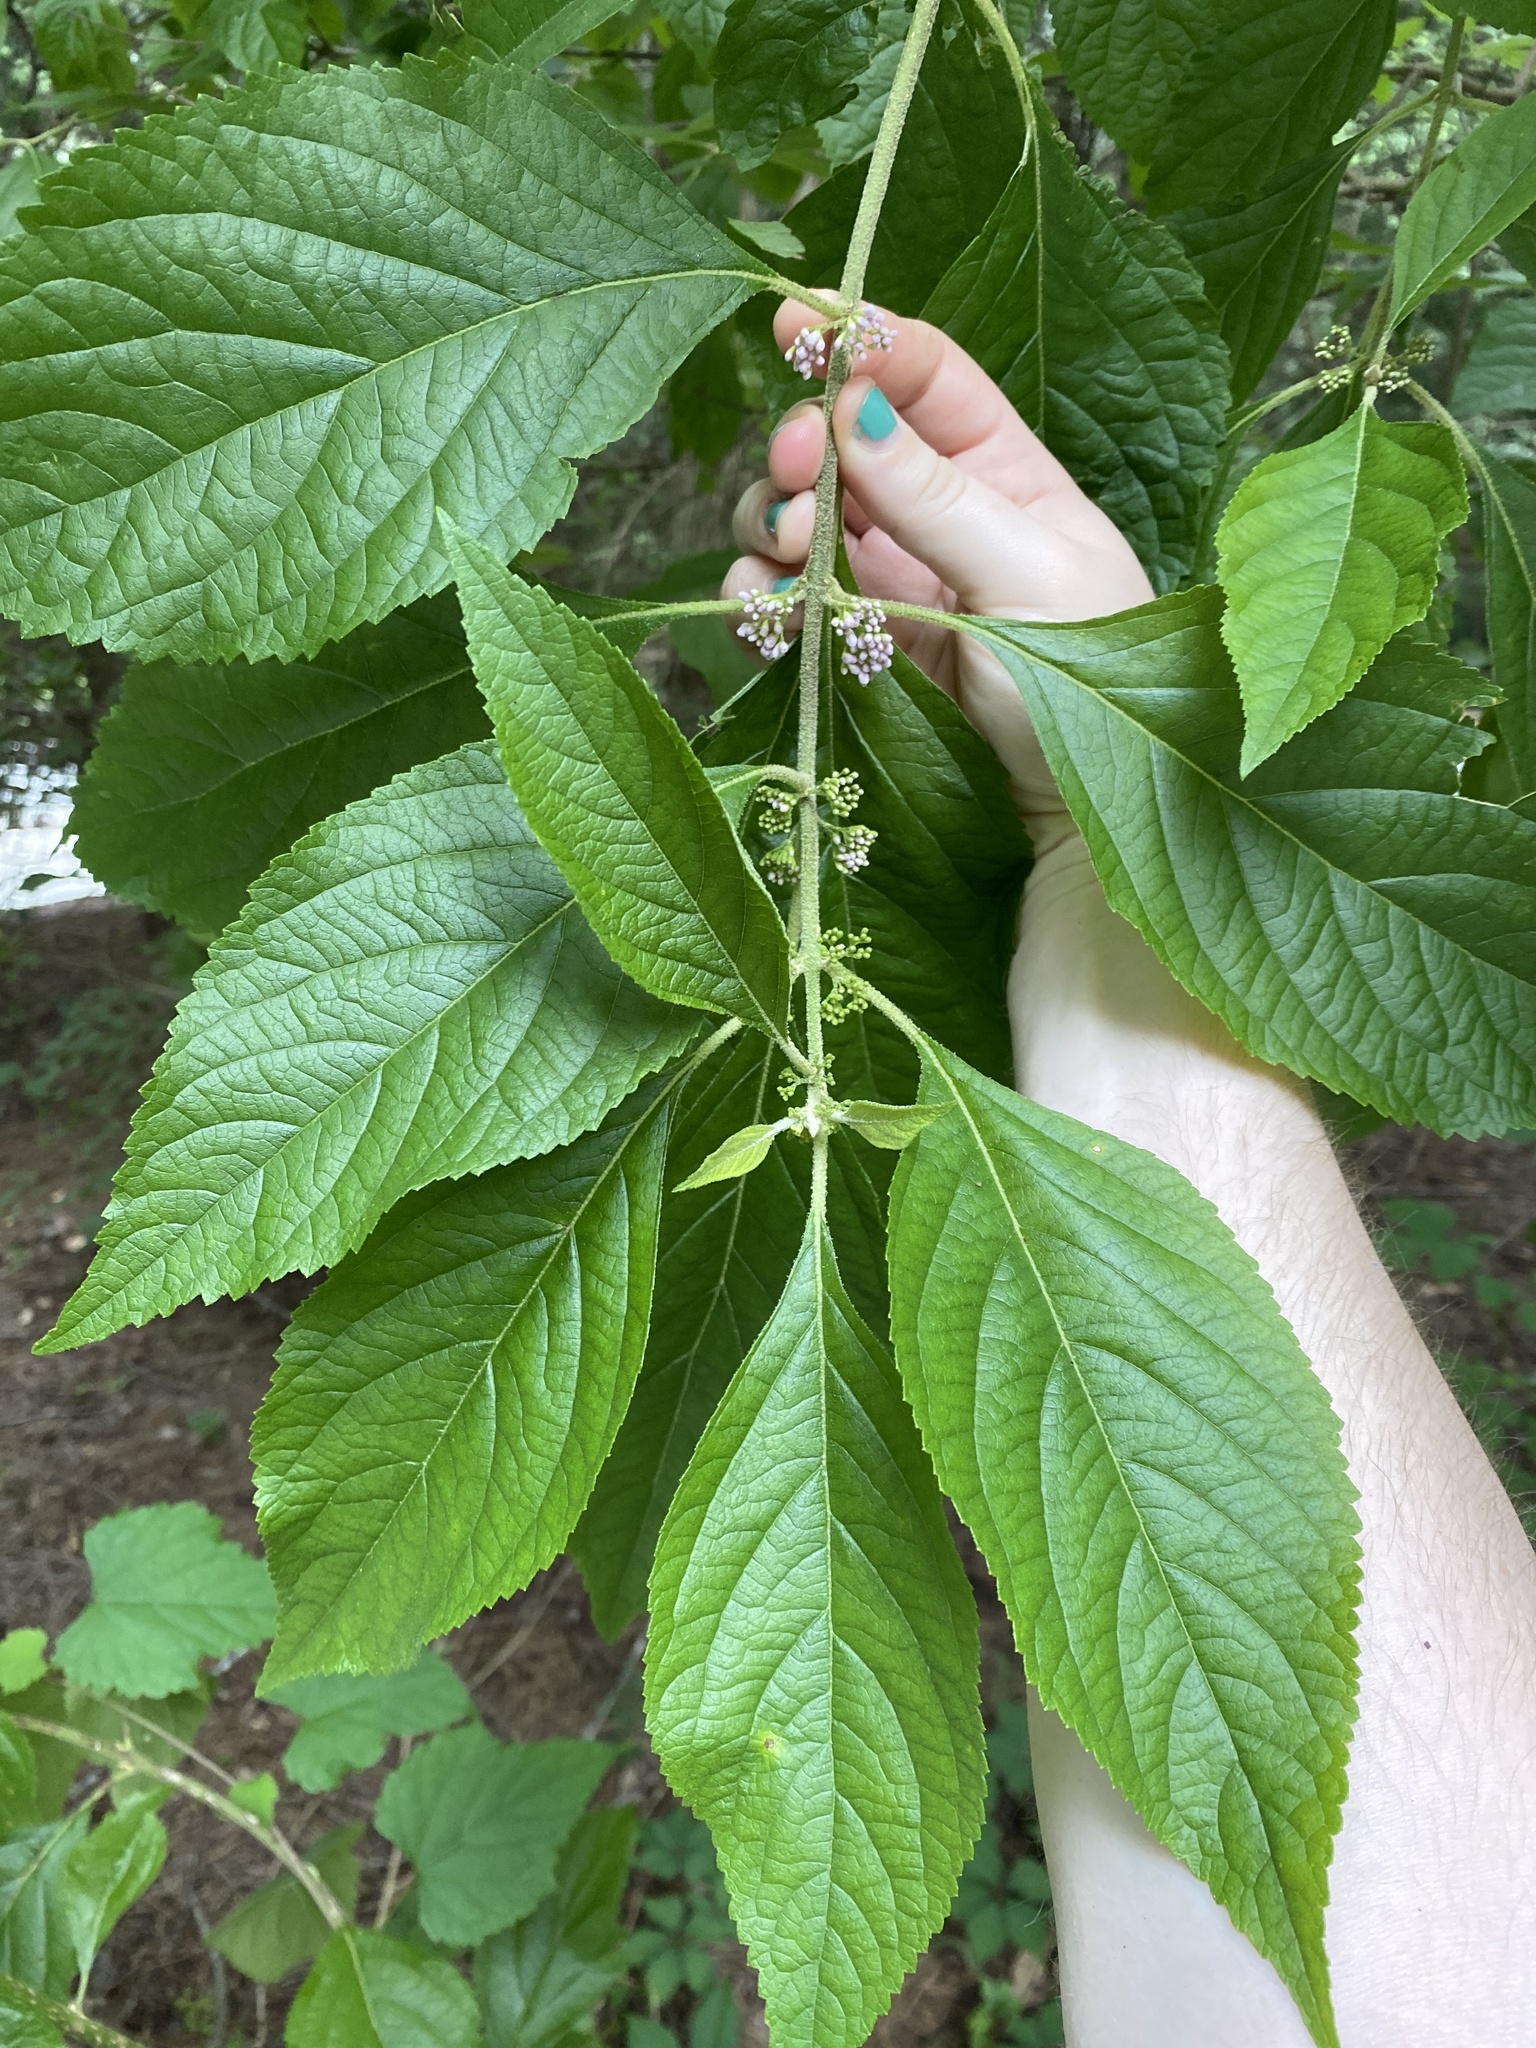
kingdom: Plantae
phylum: Tracheophyta
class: Magnoliopsida
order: Lamiales
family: Lamiaceae
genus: Callicarpa
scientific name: Callicarpa americana
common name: American beautyberry
